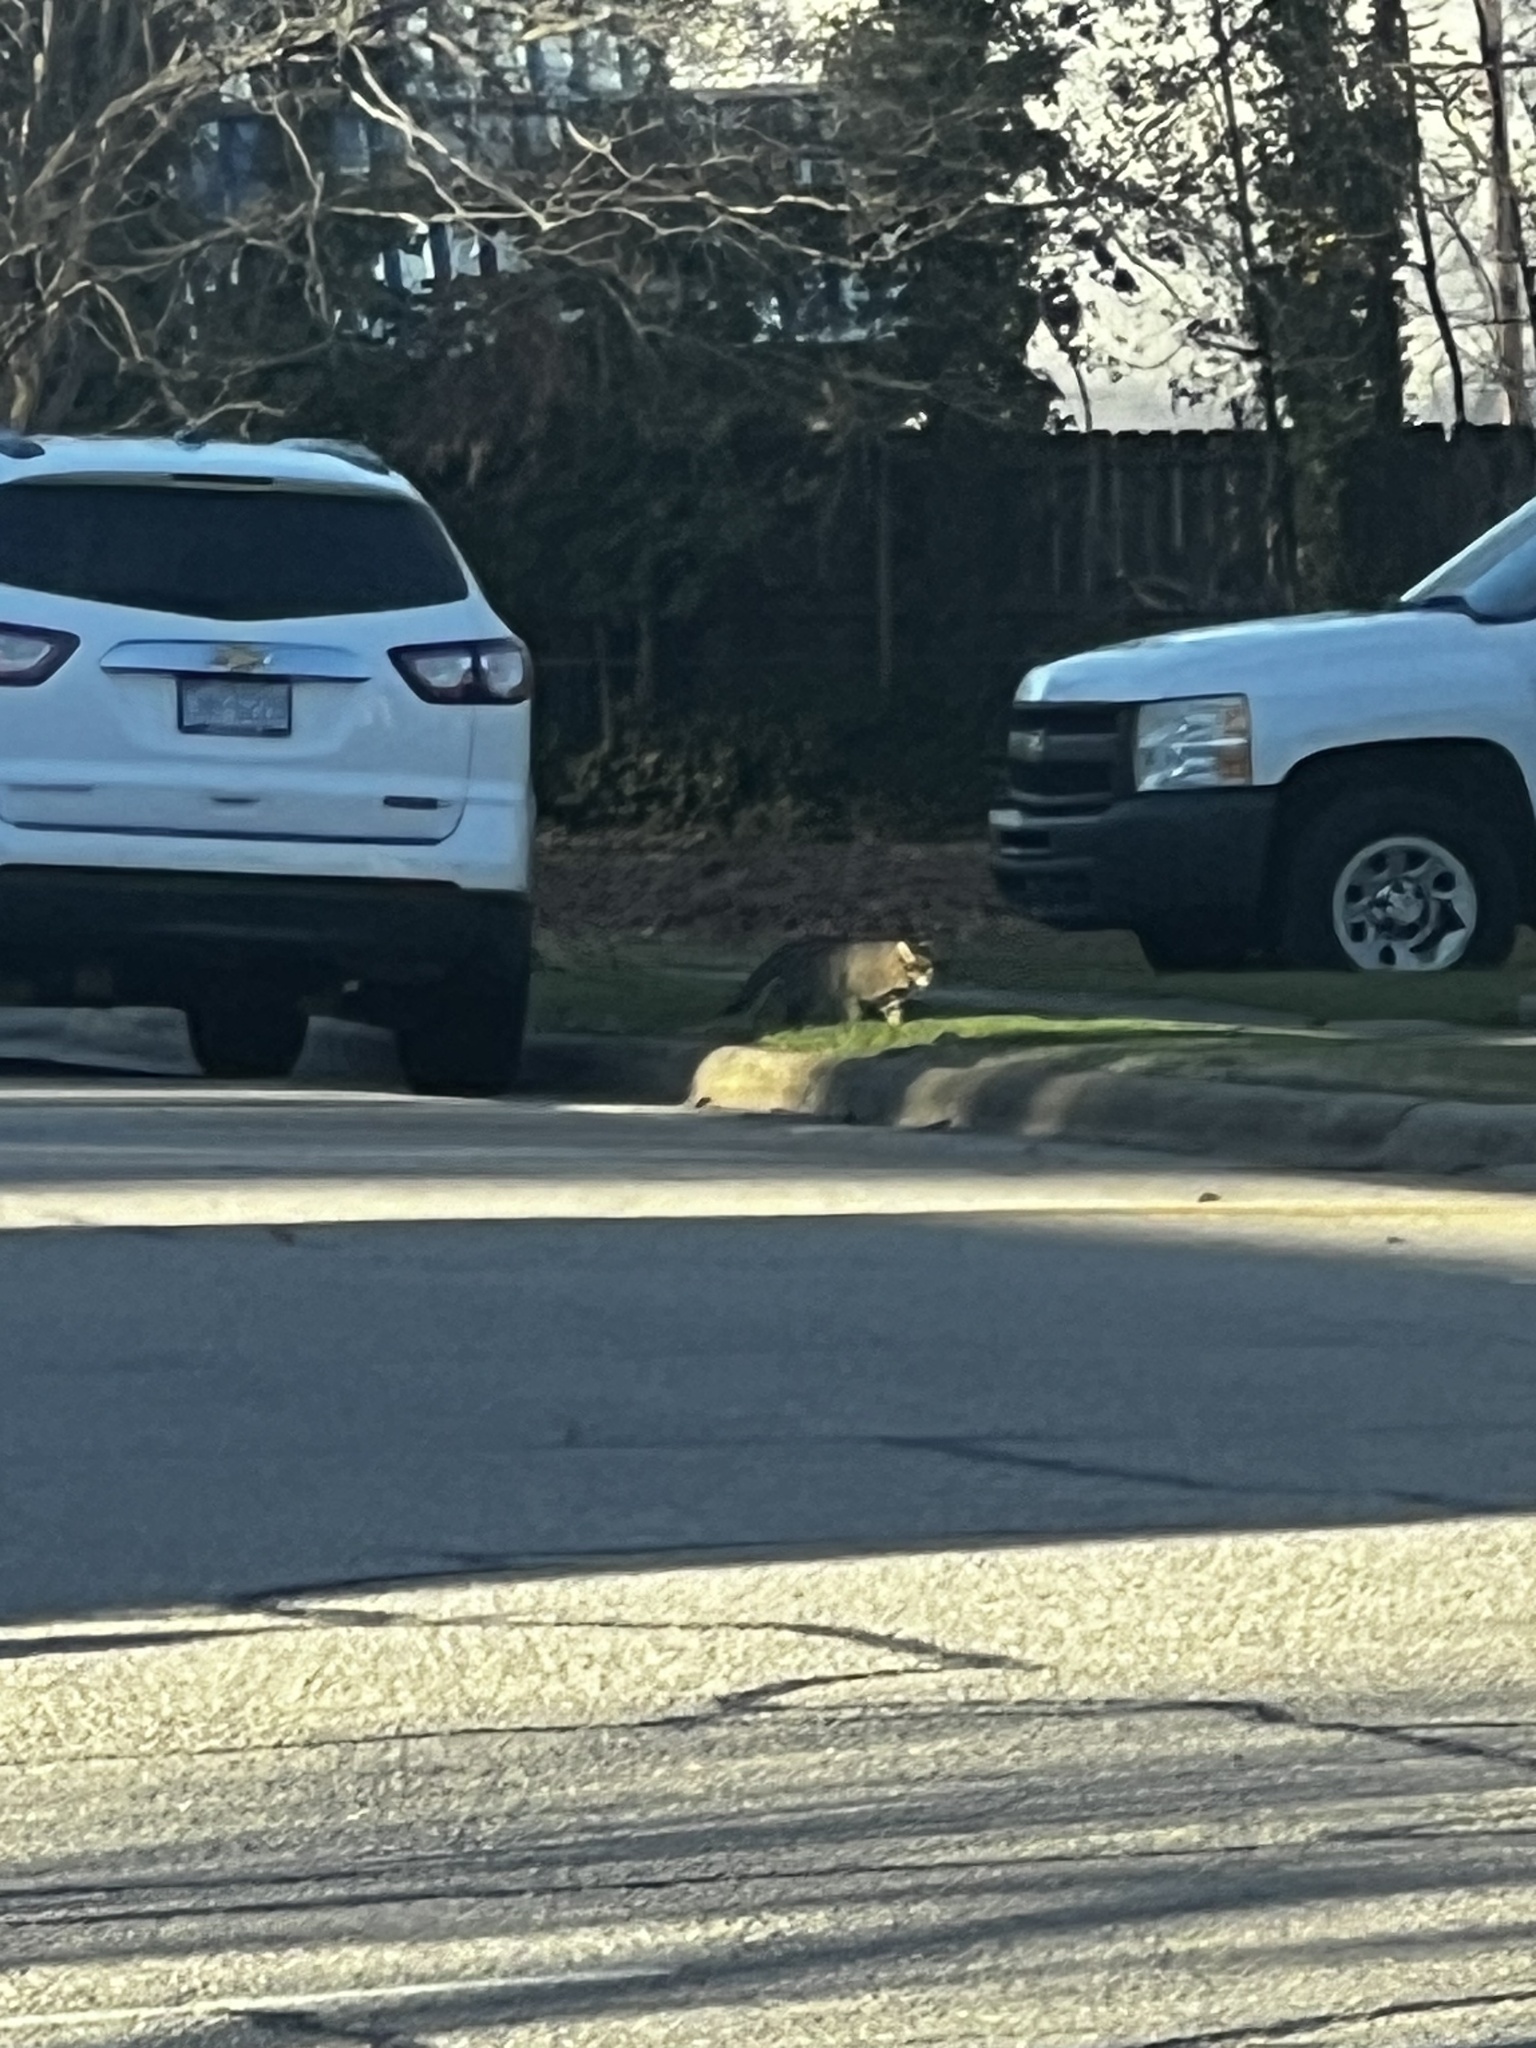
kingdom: Animalia
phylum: Chordata
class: Mammalia
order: Carnivora
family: Felidae
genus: Felis
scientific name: Felis catus
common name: Domestic cat
